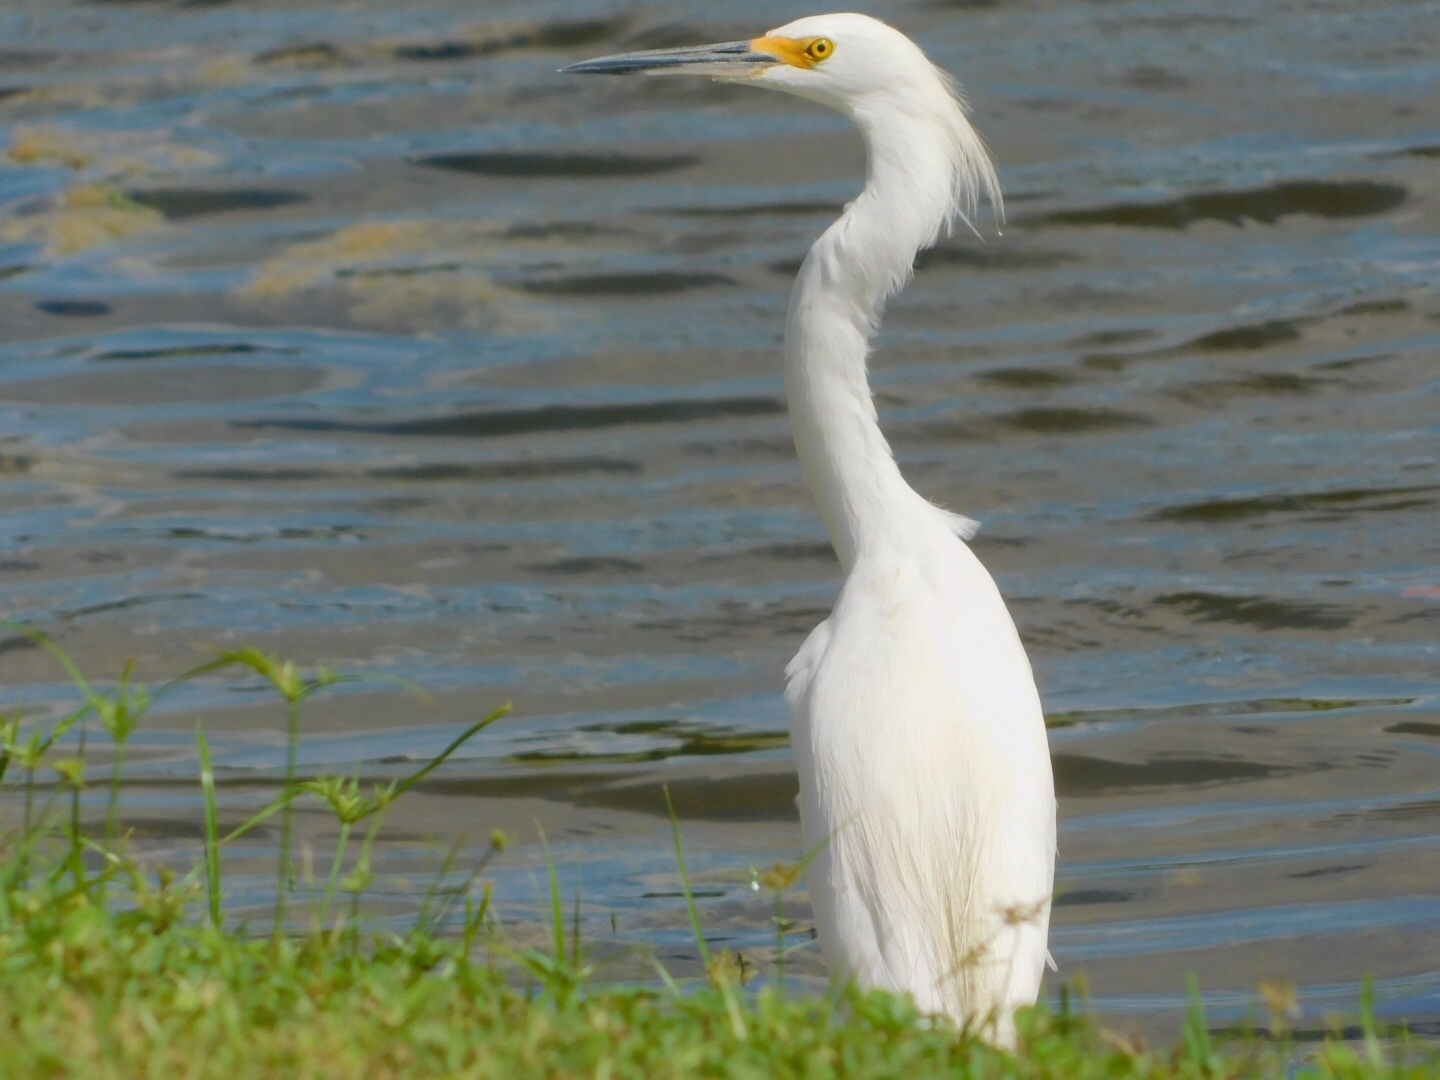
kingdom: Animalia
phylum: Chordata
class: Aves
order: Pelecaniformes
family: Ardeidae
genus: Egretta
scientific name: Egretta thula
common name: Snowy egret
